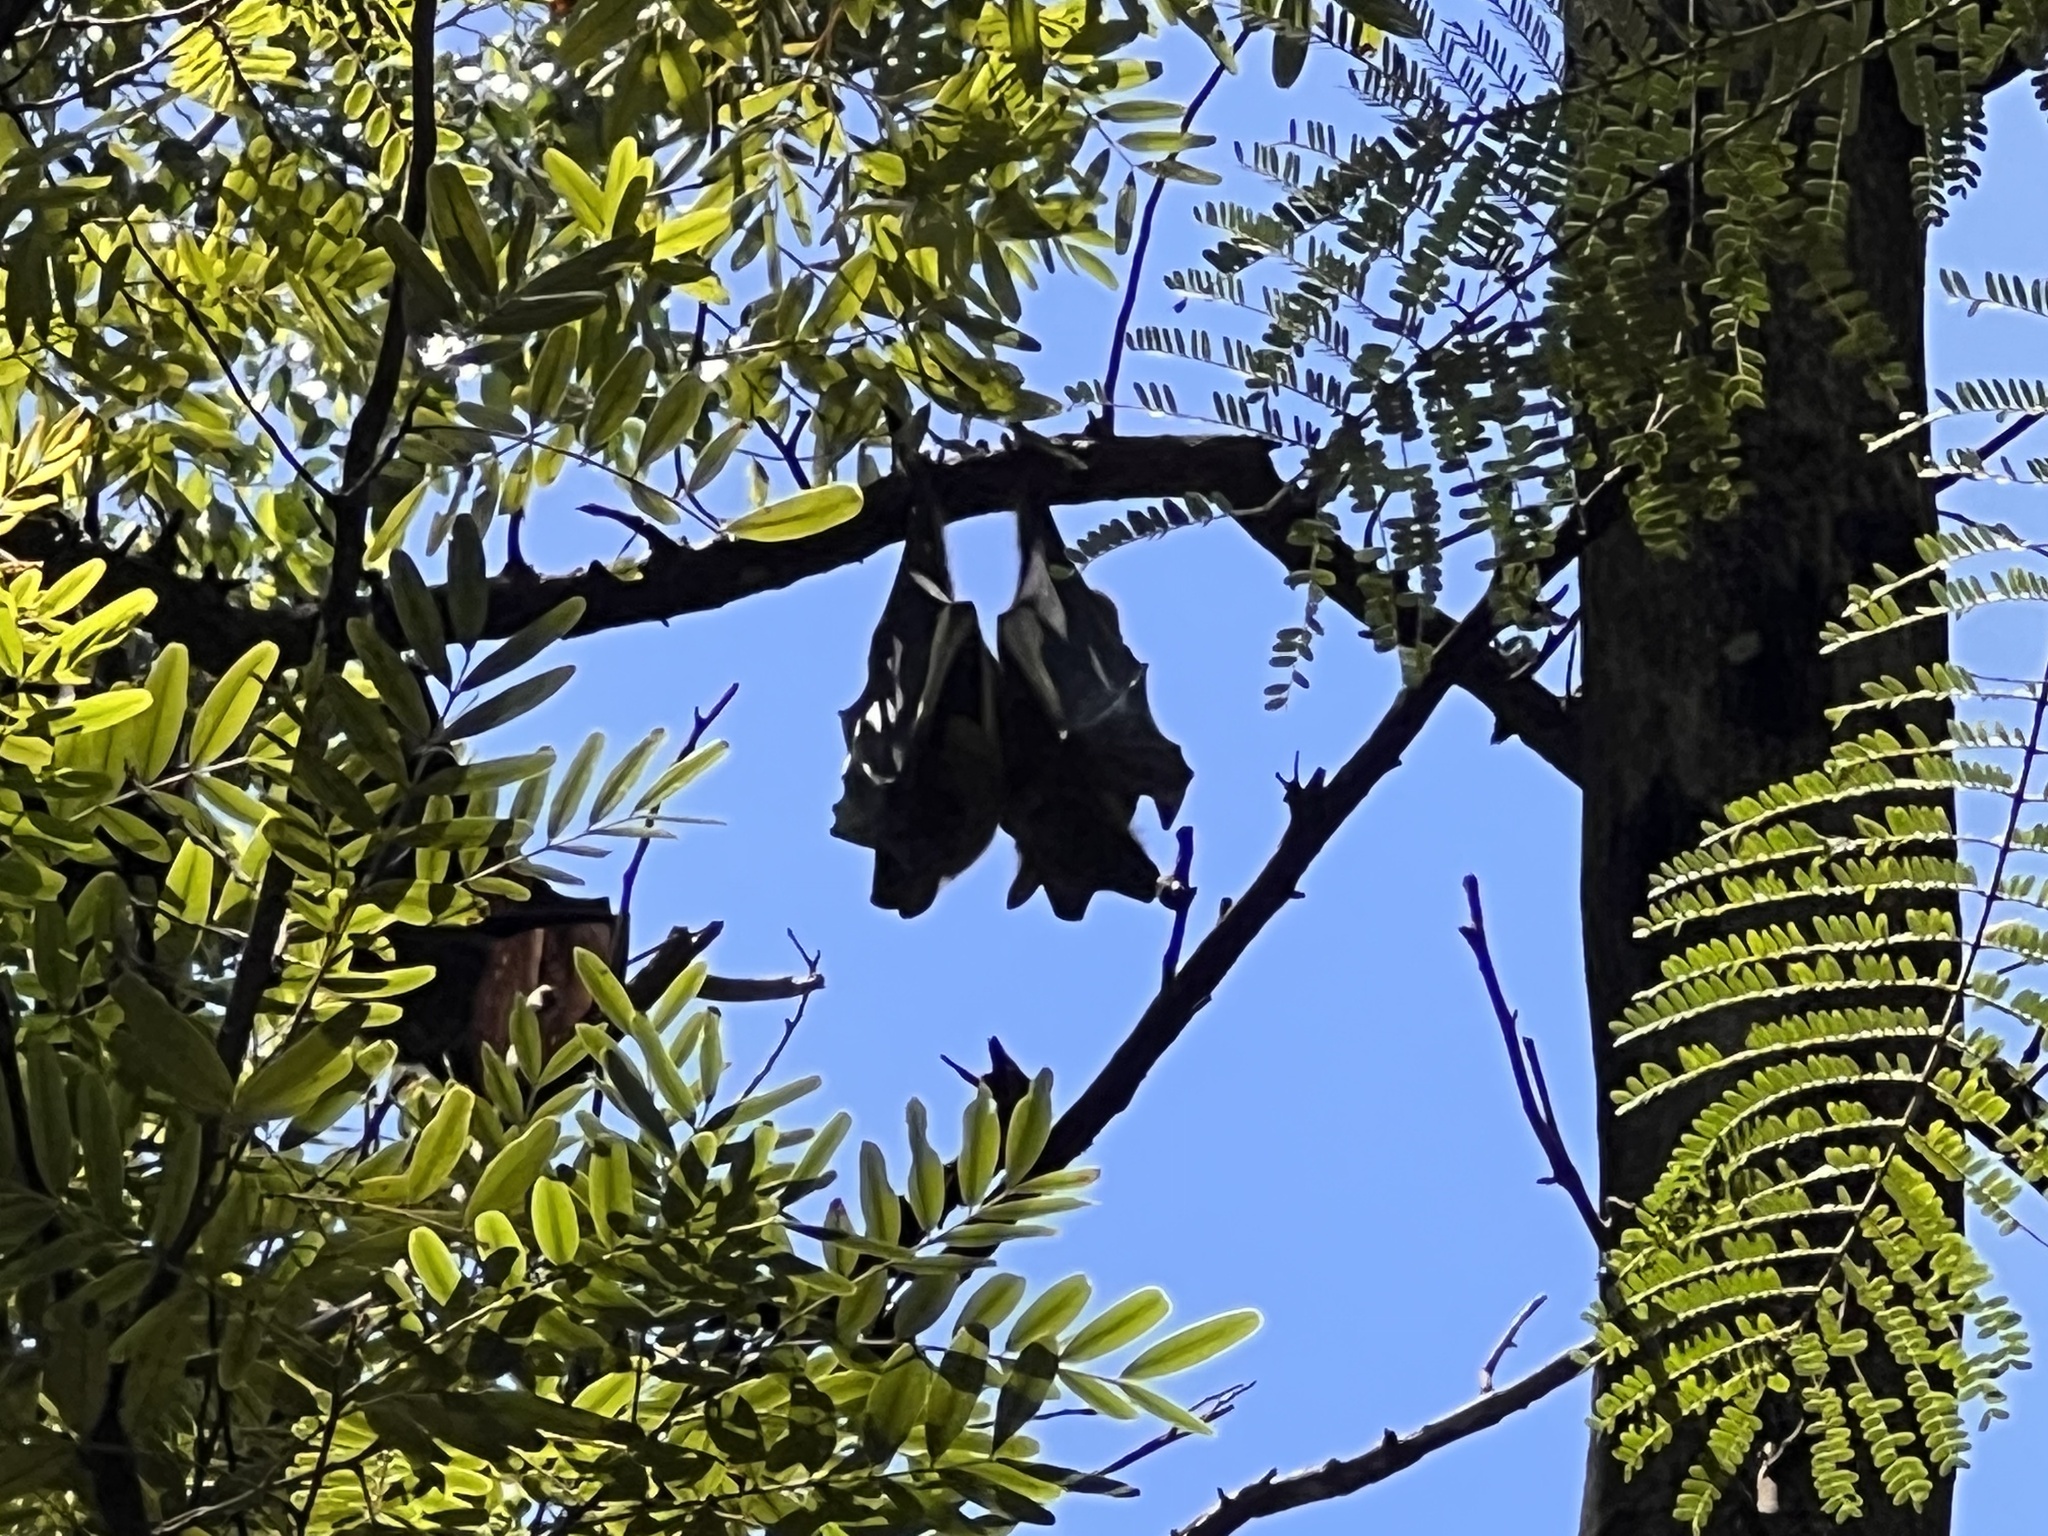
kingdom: Animalia
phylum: Chordata
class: Mammalia
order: Chiroptera
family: Pteropodidae
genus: Eidolon
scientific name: Eidolon helvum
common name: Straw-colored fruit bat
